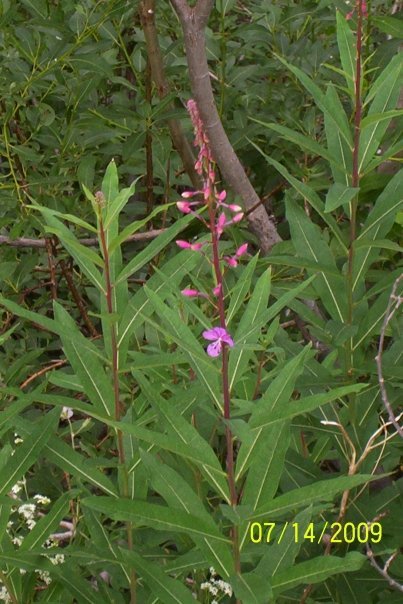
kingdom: Plantae
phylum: Tracheophyta
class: Magnoliopsida
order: Myrtales
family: Onagraceae
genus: Chamaenerion
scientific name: Chamaenerion angustifolium
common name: Fireweed
